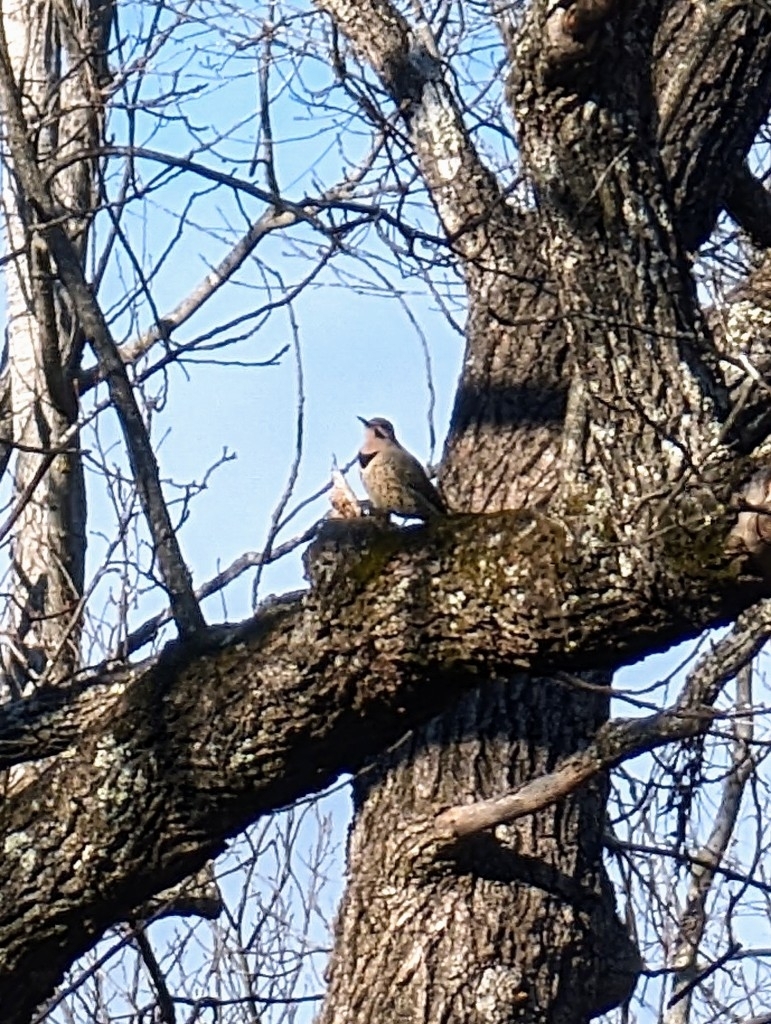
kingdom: Animalia
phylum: Chordata
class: Aves
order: Piciformes
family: Picidae
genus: Colaptes
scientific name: Colaptes auratus
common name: Northern flicker
